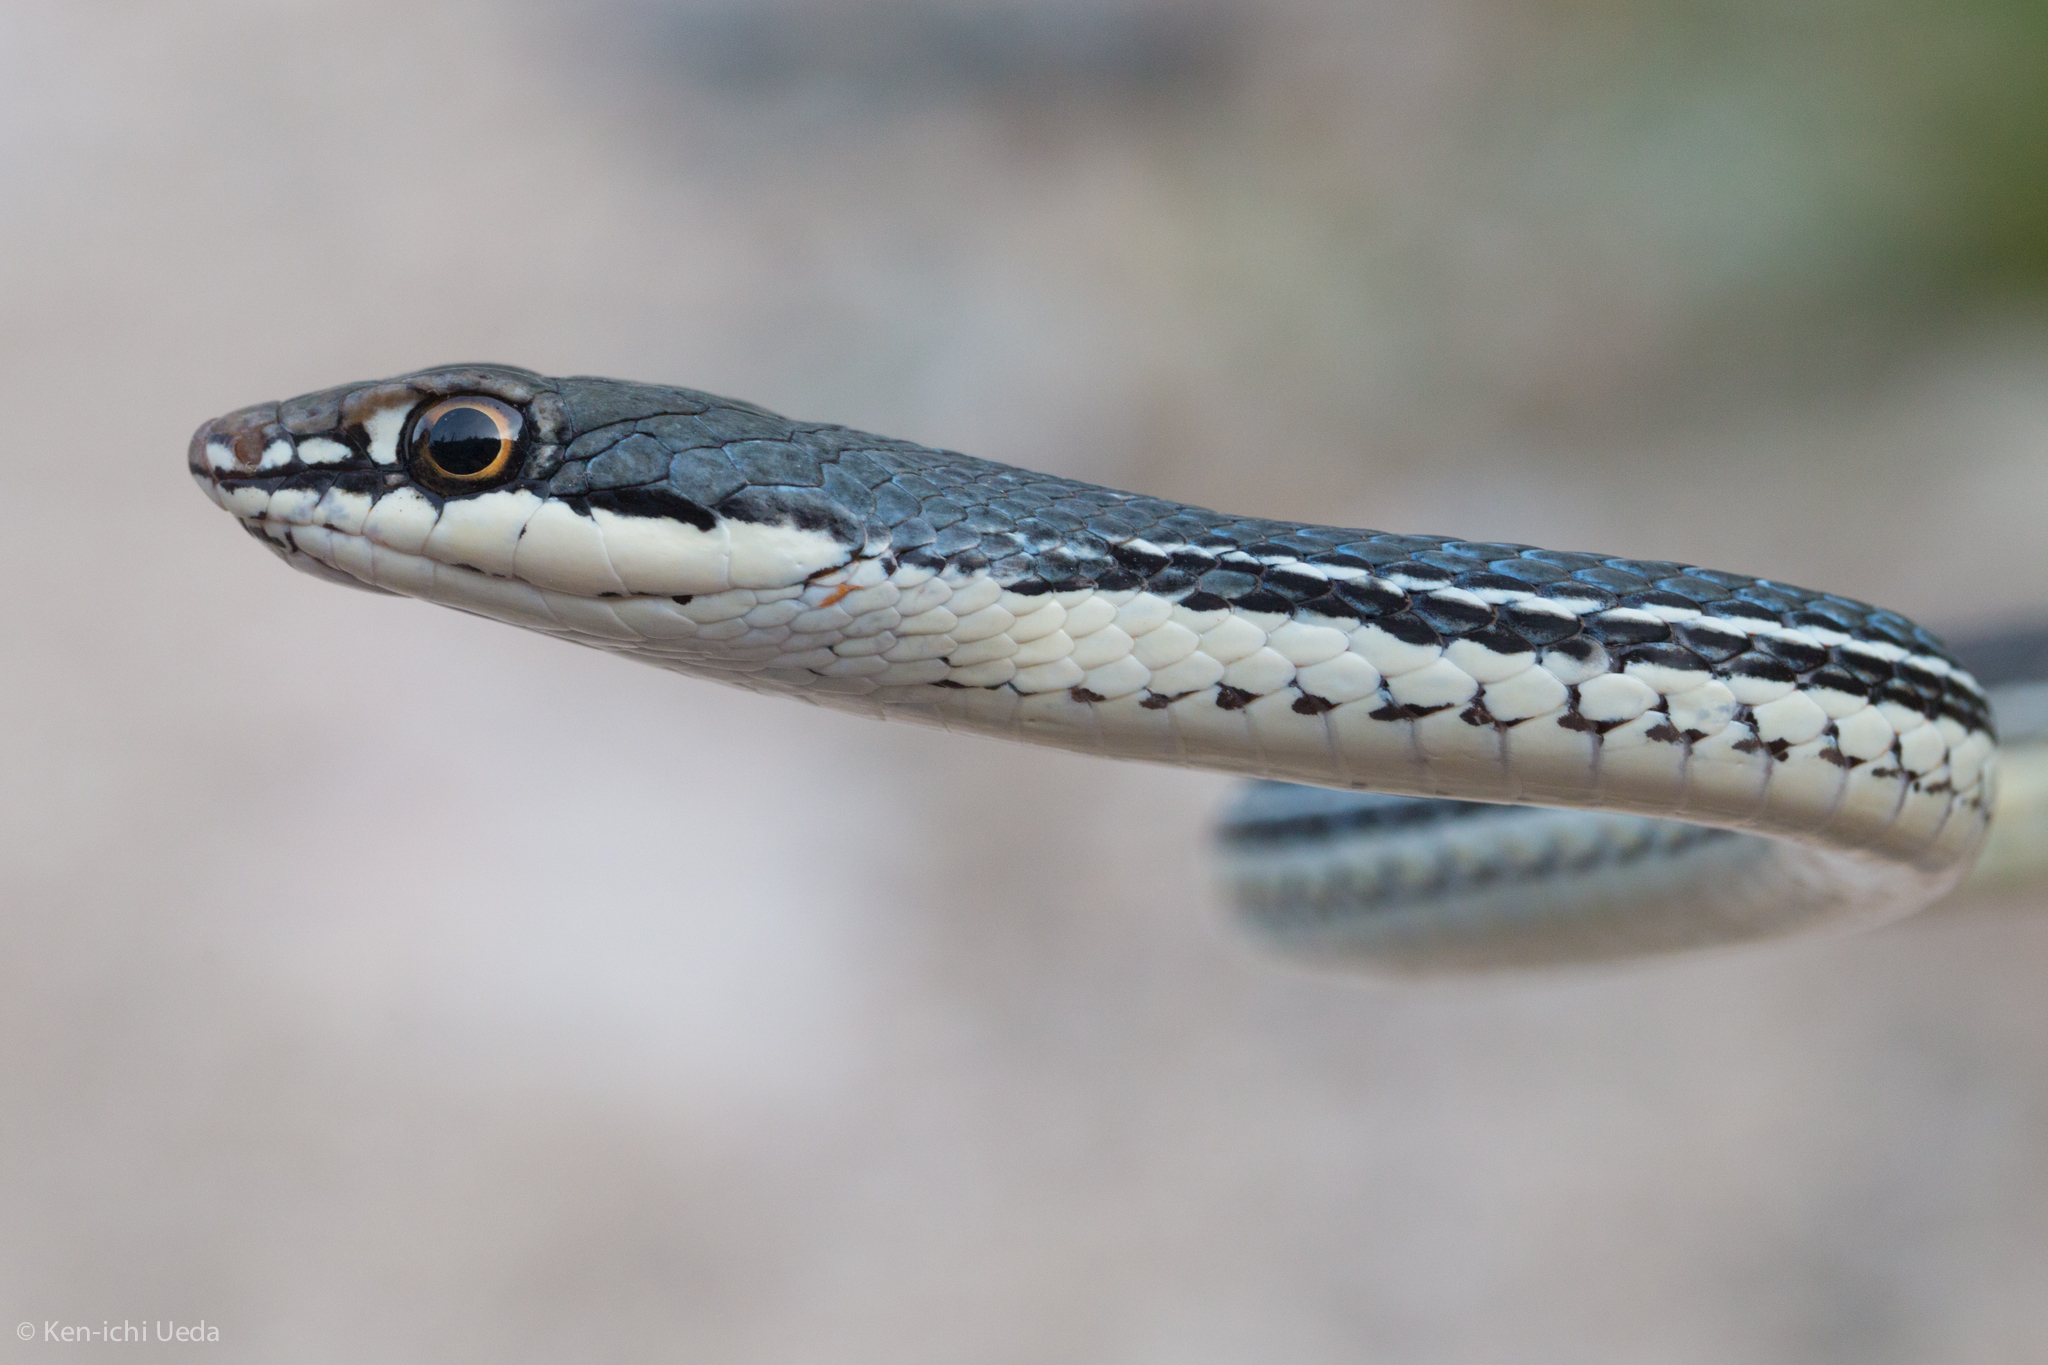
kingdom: Animalia
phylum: Chordata
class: Squamata
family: Colubridae
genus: Masticophis
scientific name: Masticophis bilineatus
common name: Sonoran whipsnake
